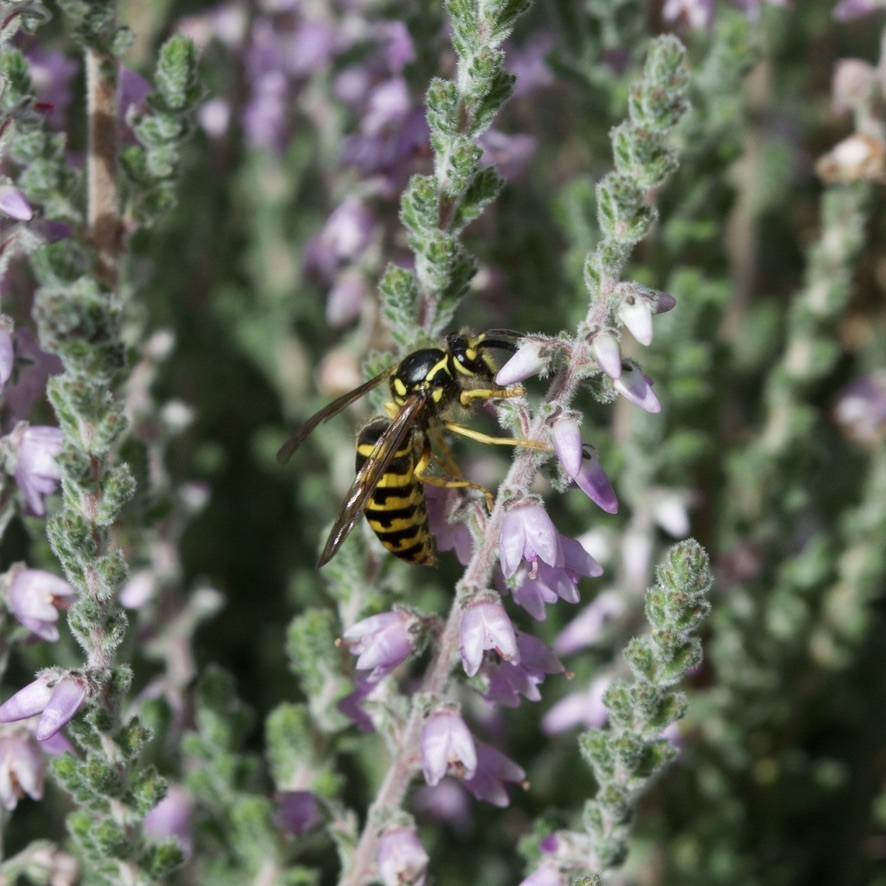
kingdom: Animalia
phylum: Arthropoda
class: Insecta
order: Hymenoptera
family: Vespidae
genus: Dolichovespula
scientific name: Dolichovespula arenaria
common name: Aerial yellowjacket
